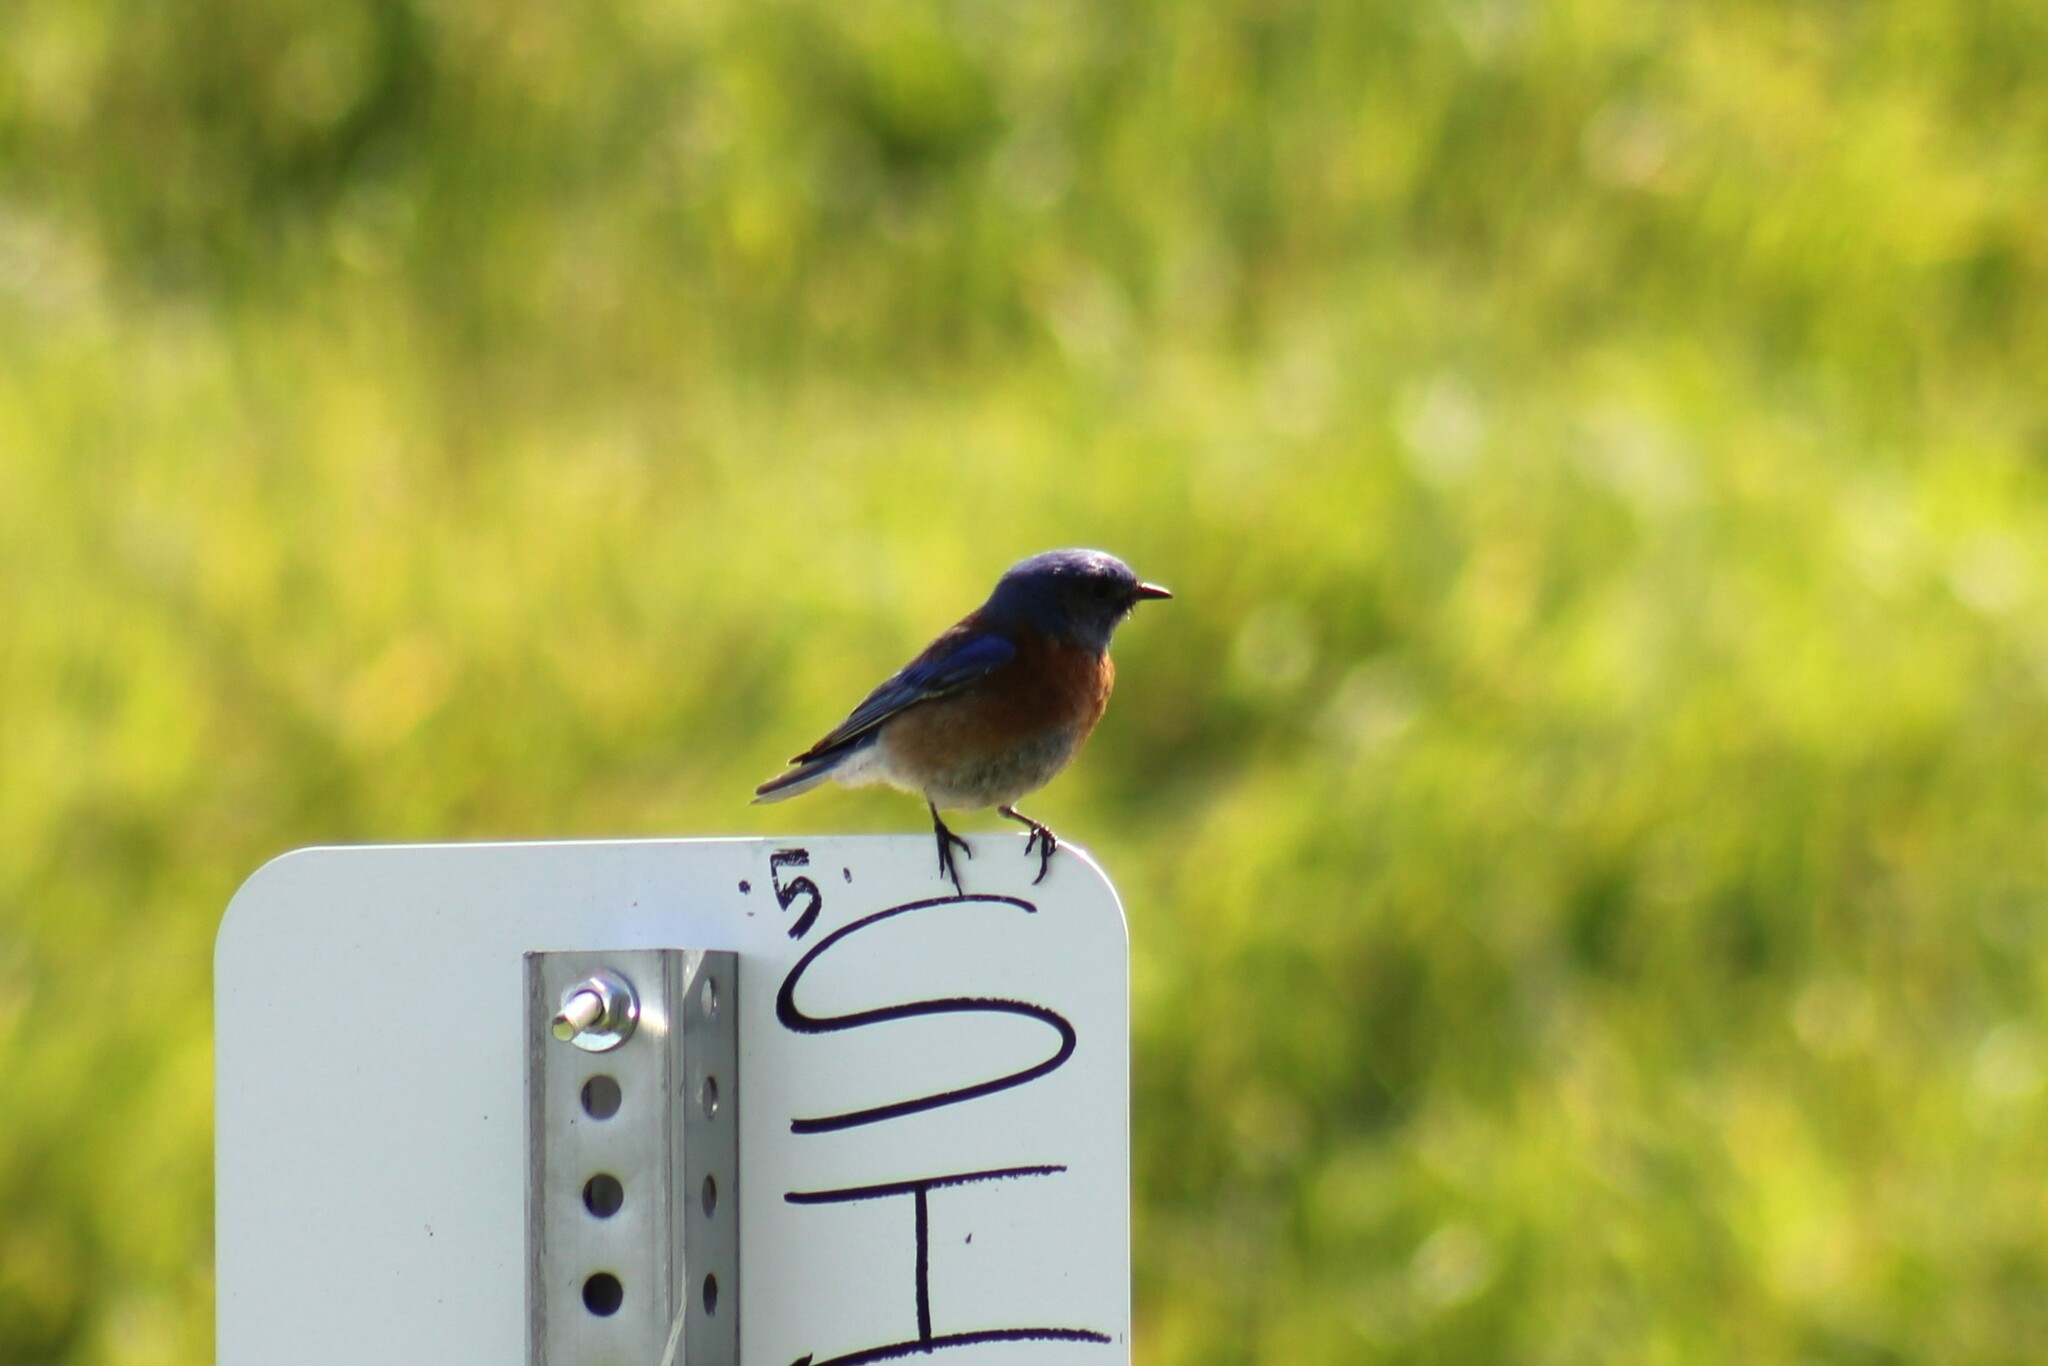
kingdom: Animalia
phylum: Chordata
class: Aves
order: Passeriformes
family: Turdidae
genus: Sialia
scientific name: Sialia mexicana
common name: Western bluebird
